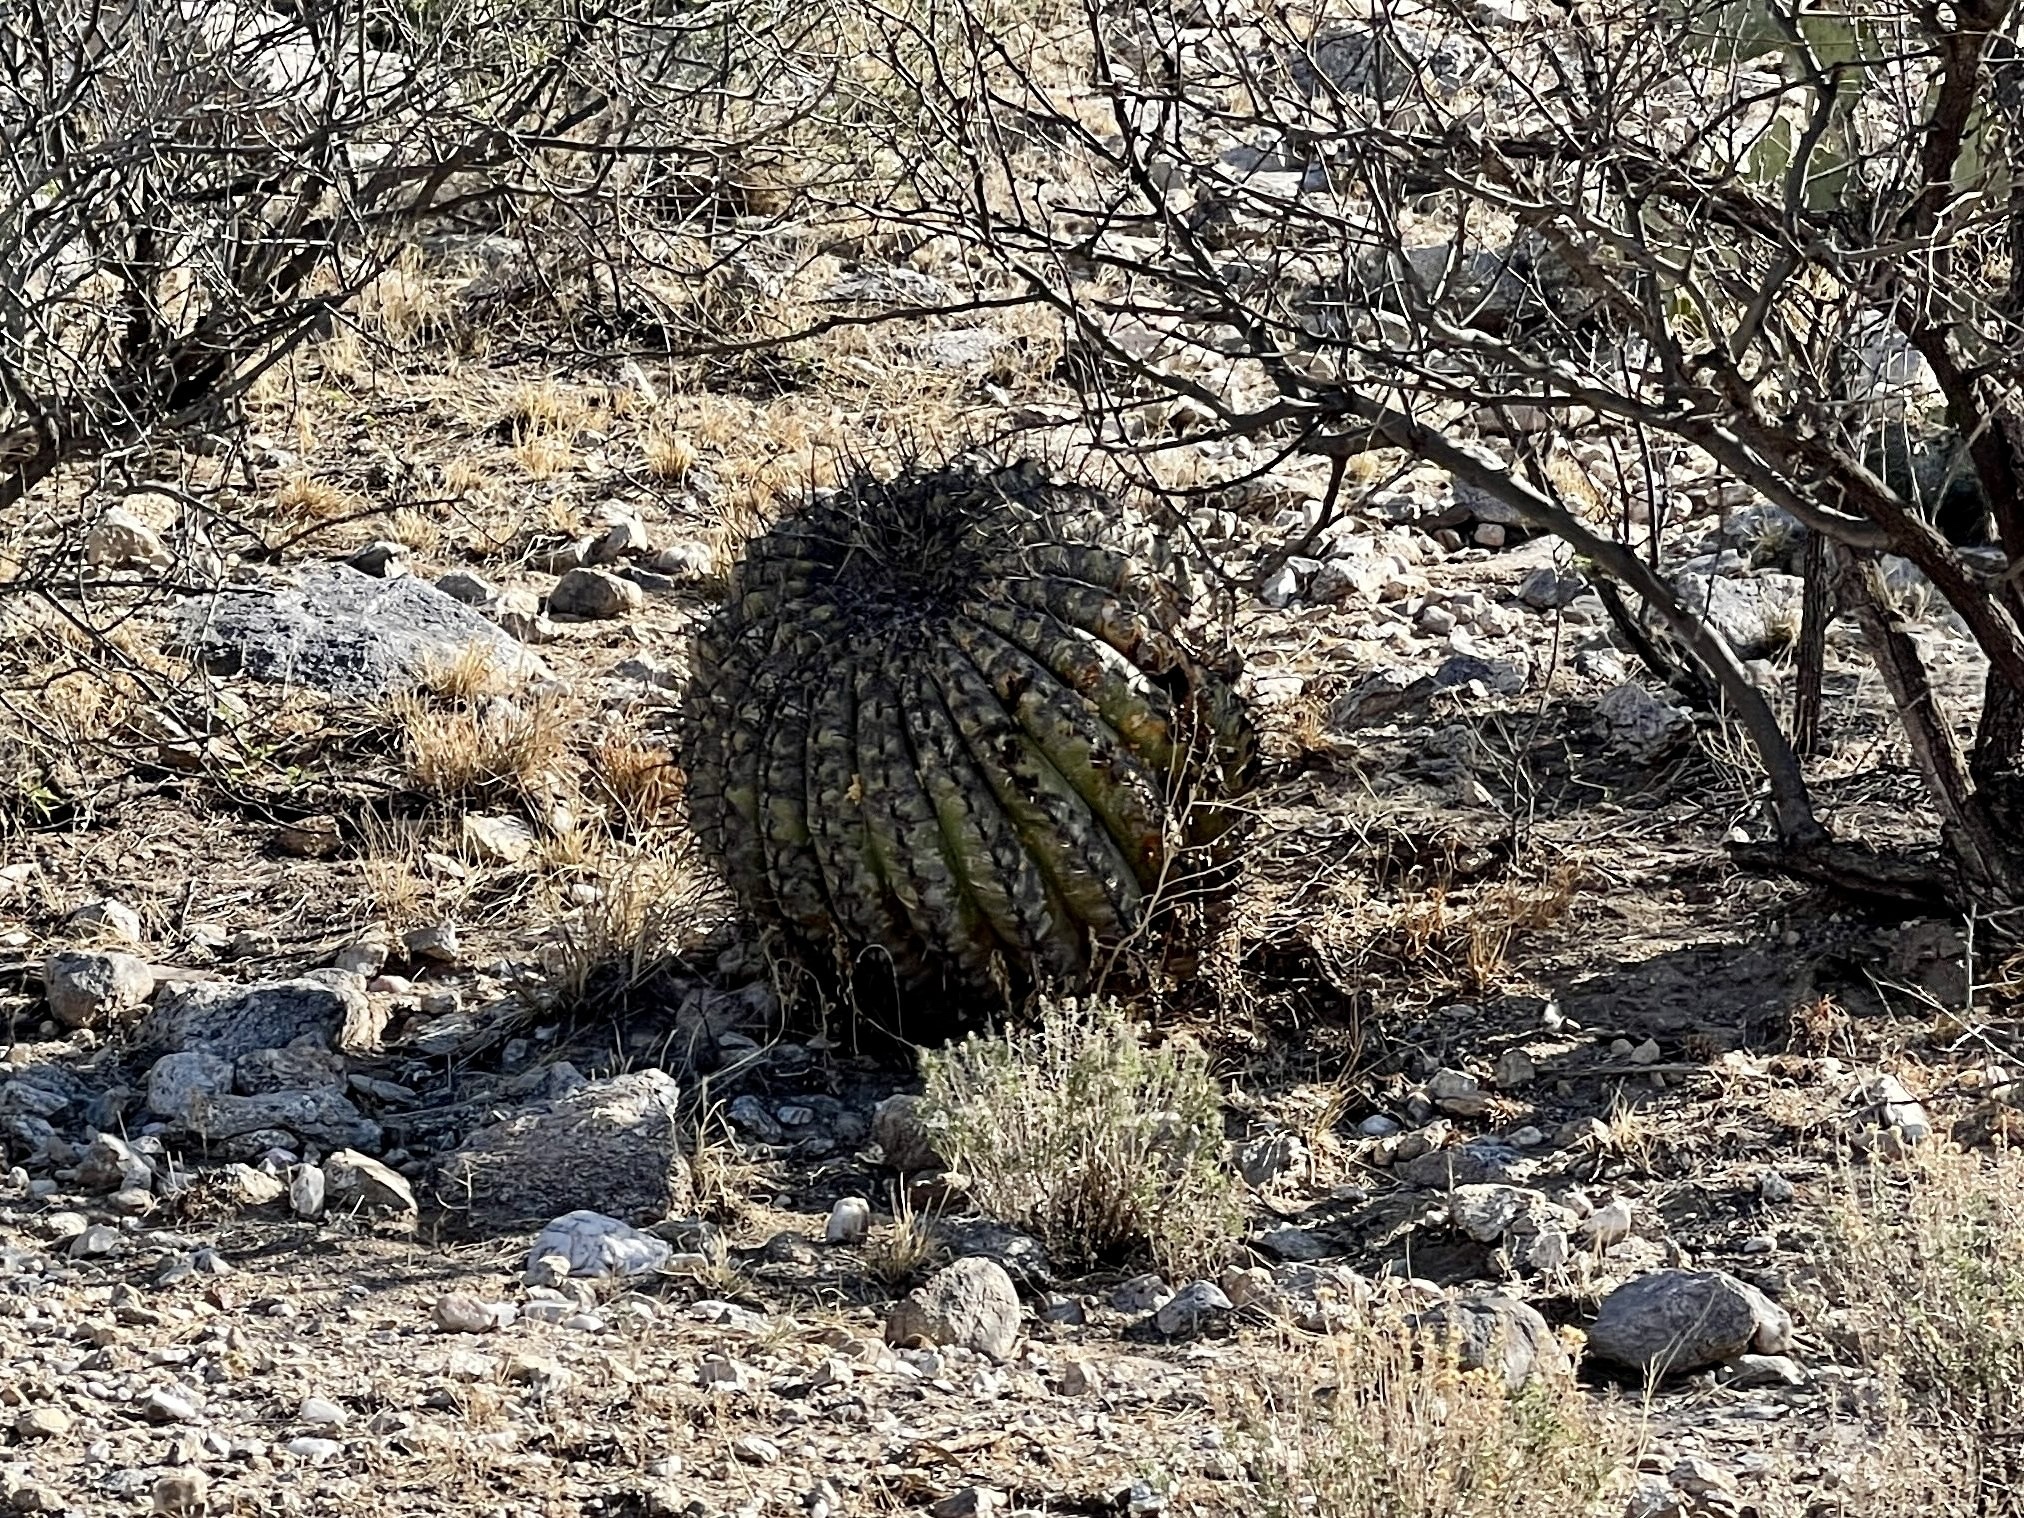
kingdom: Plantae
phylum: Tracheophyta
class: Magnoliopsida
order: Caryophyllales
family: Cactaceae
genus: Ferocactus
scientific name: Ferocactus wislizeni
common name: Candy barrel cactus
